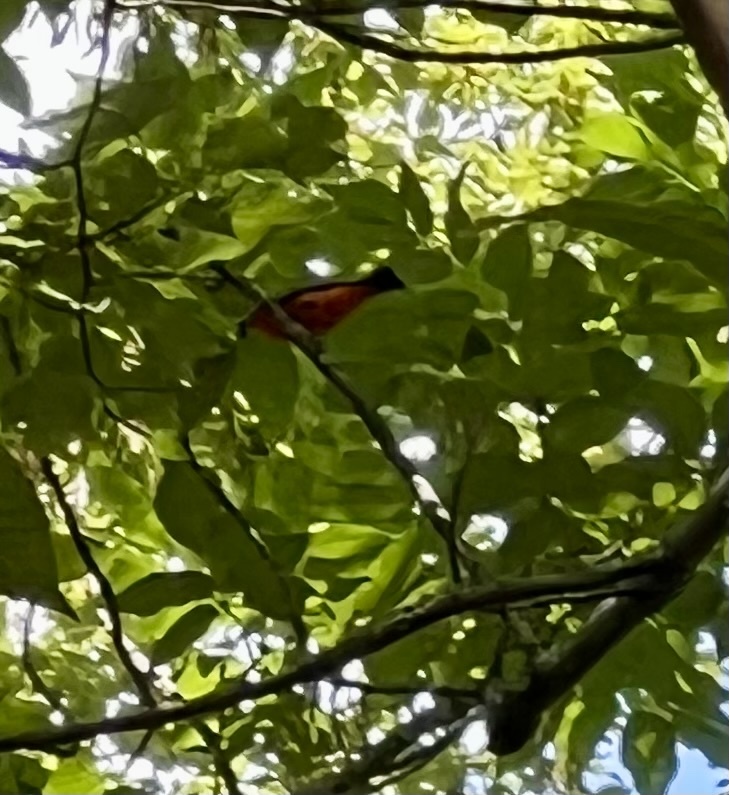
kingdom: Animalia
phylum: Chordata
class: Aves
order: Passeriformes
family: Cardinalidae
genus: Piranga
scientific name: Piranga olivacea
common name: Scarlet tanager
